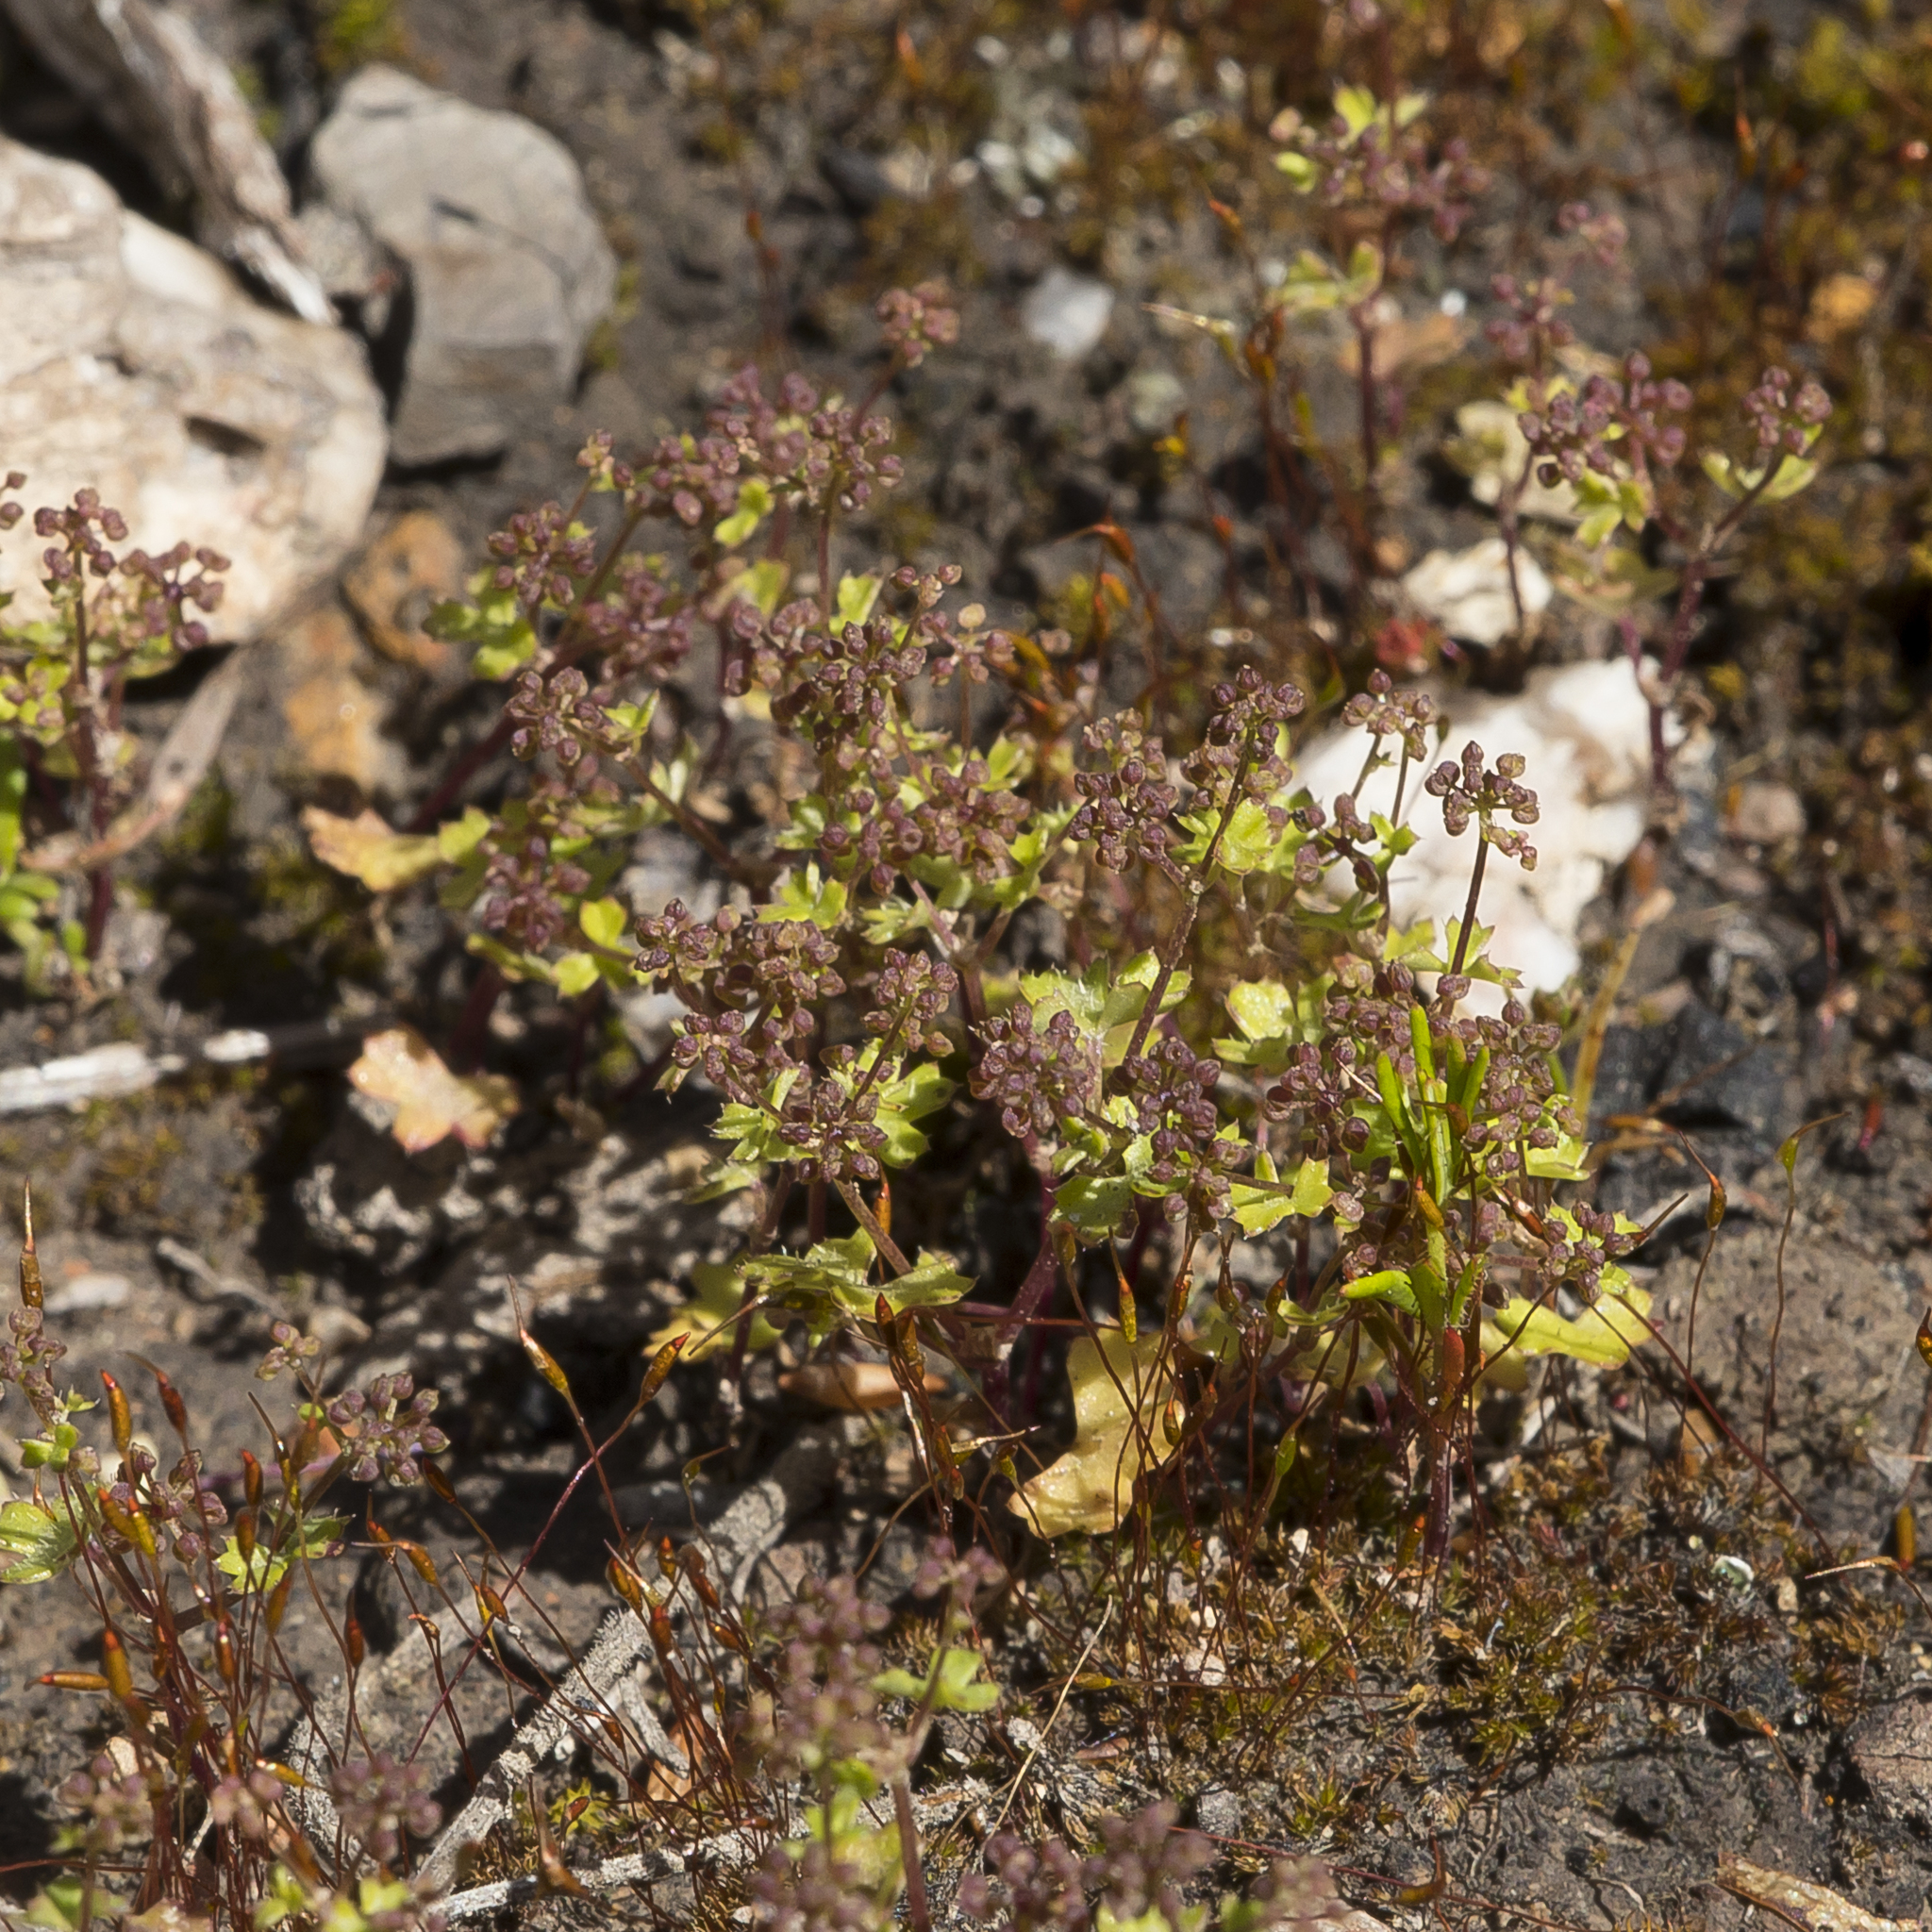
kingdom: Plantae
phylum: Tracheophyta
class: Magnoliopsida
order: Apiales
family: Araliaceae
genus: Hydrocotyle
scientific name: Hydrocotyle callicarpa
